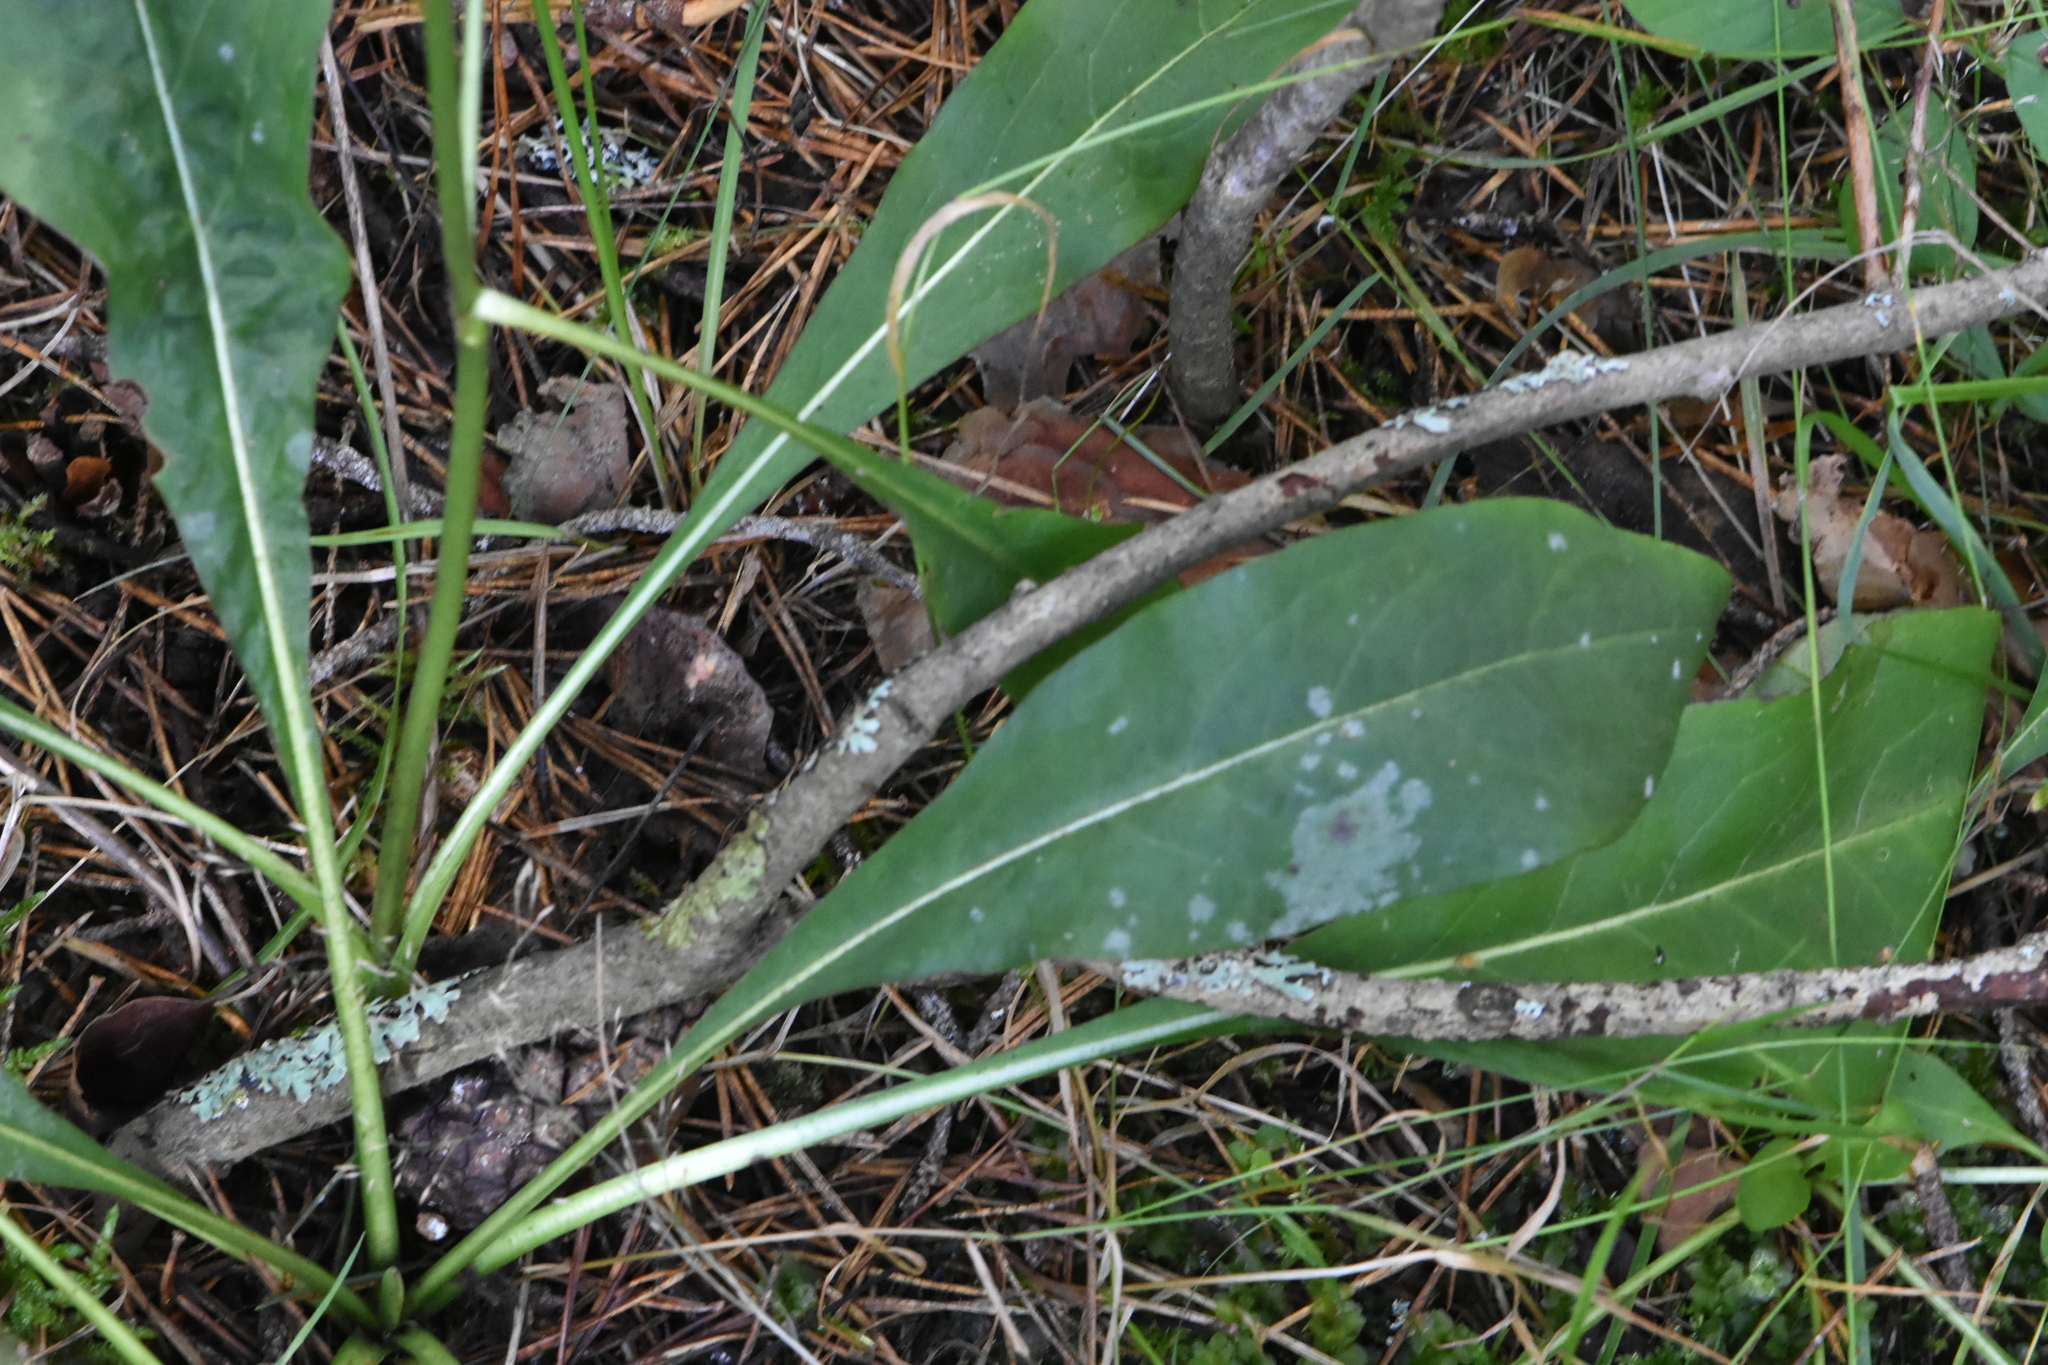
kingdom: Plantae
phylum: Tracheophyta
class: Magnoliopsida
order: Dipsacales
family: Caprifoliaceae
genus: Succisa
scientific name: Succisa pratensis
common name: Devil's-bit
